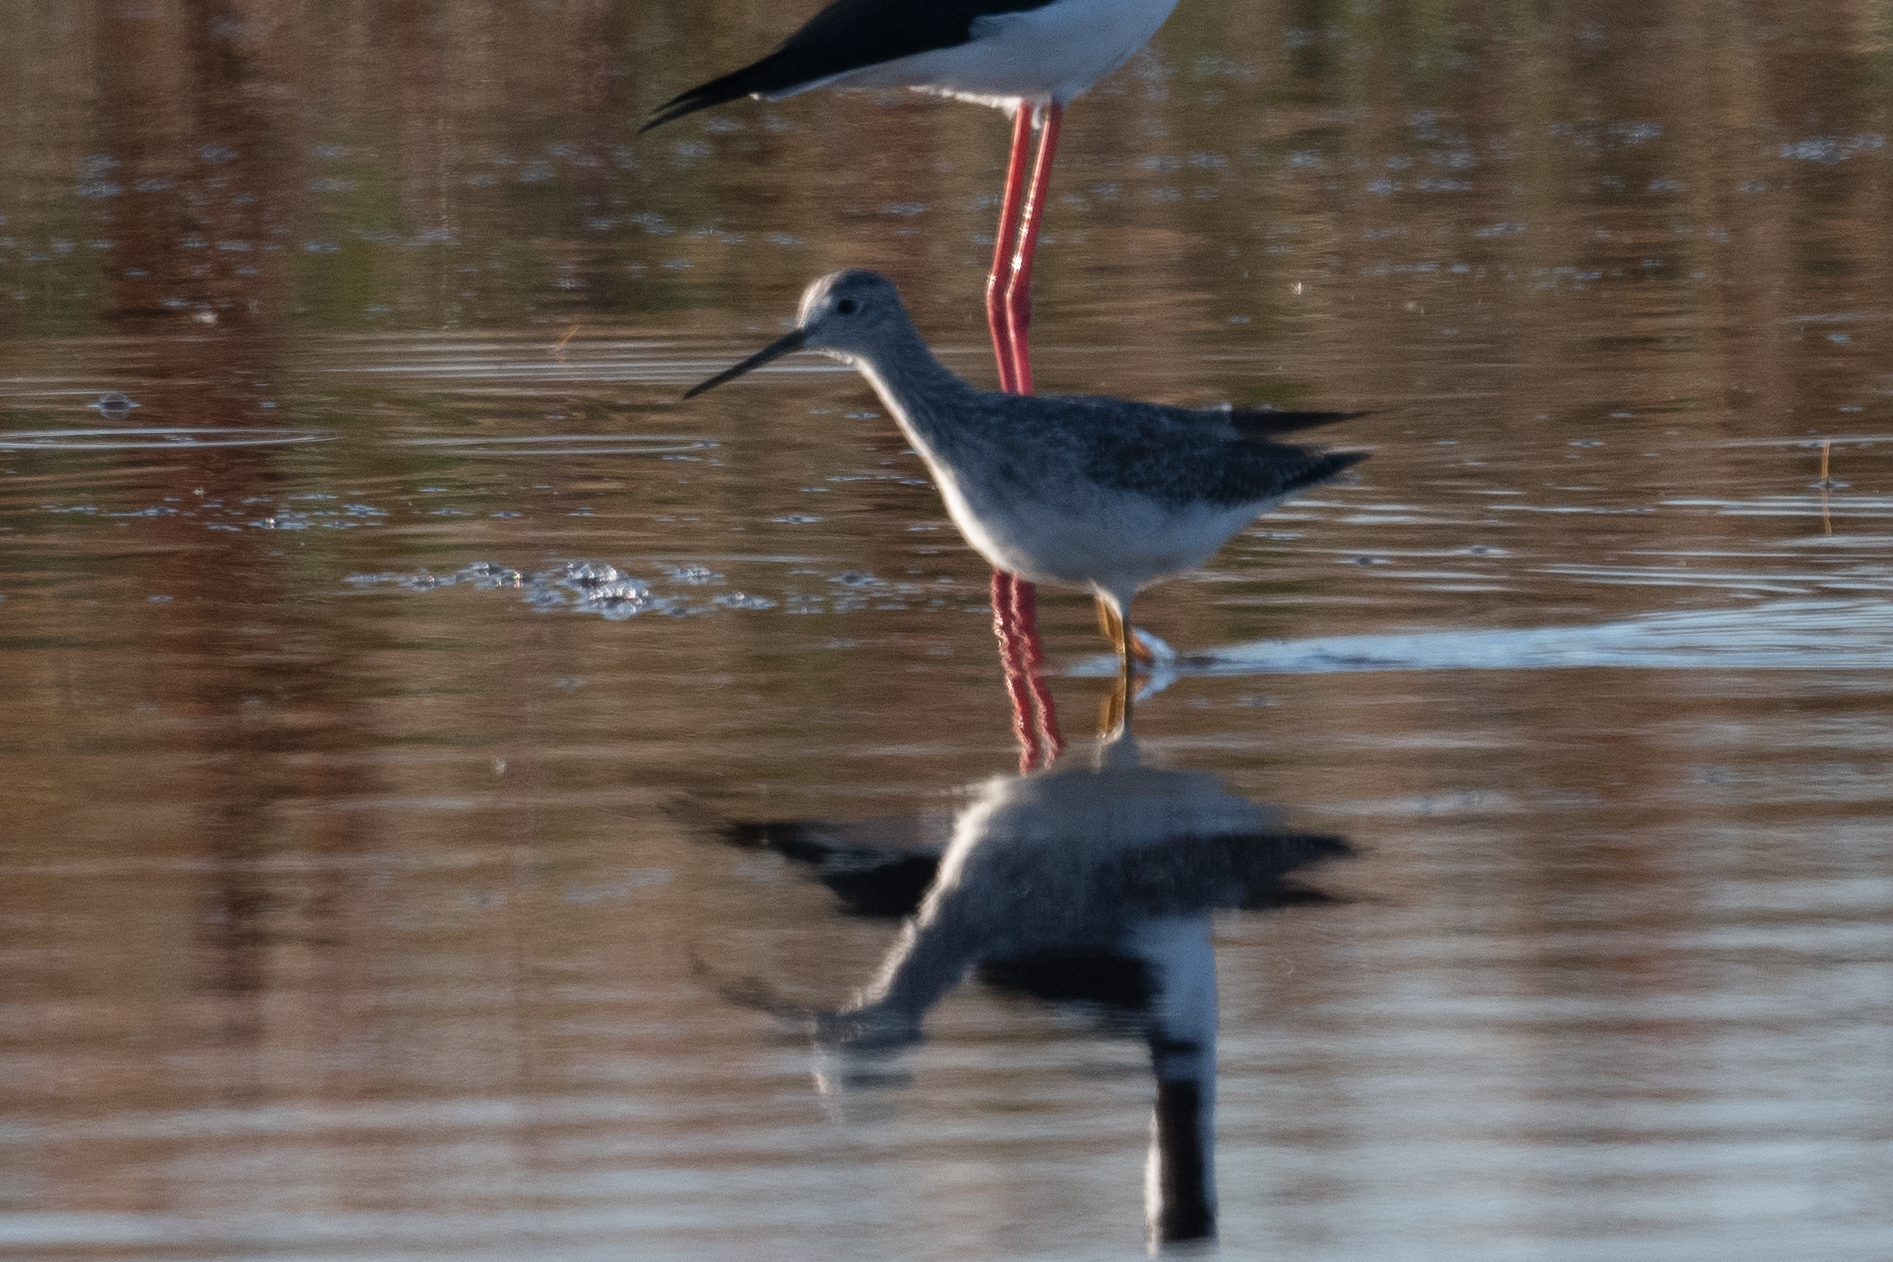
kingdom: Animalia
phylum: Chordata
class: Aves
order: Charadriiformes
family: Scolopacidae
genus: Tringa
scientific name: Tringa melanoleuca
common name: Greater yellowlegs
